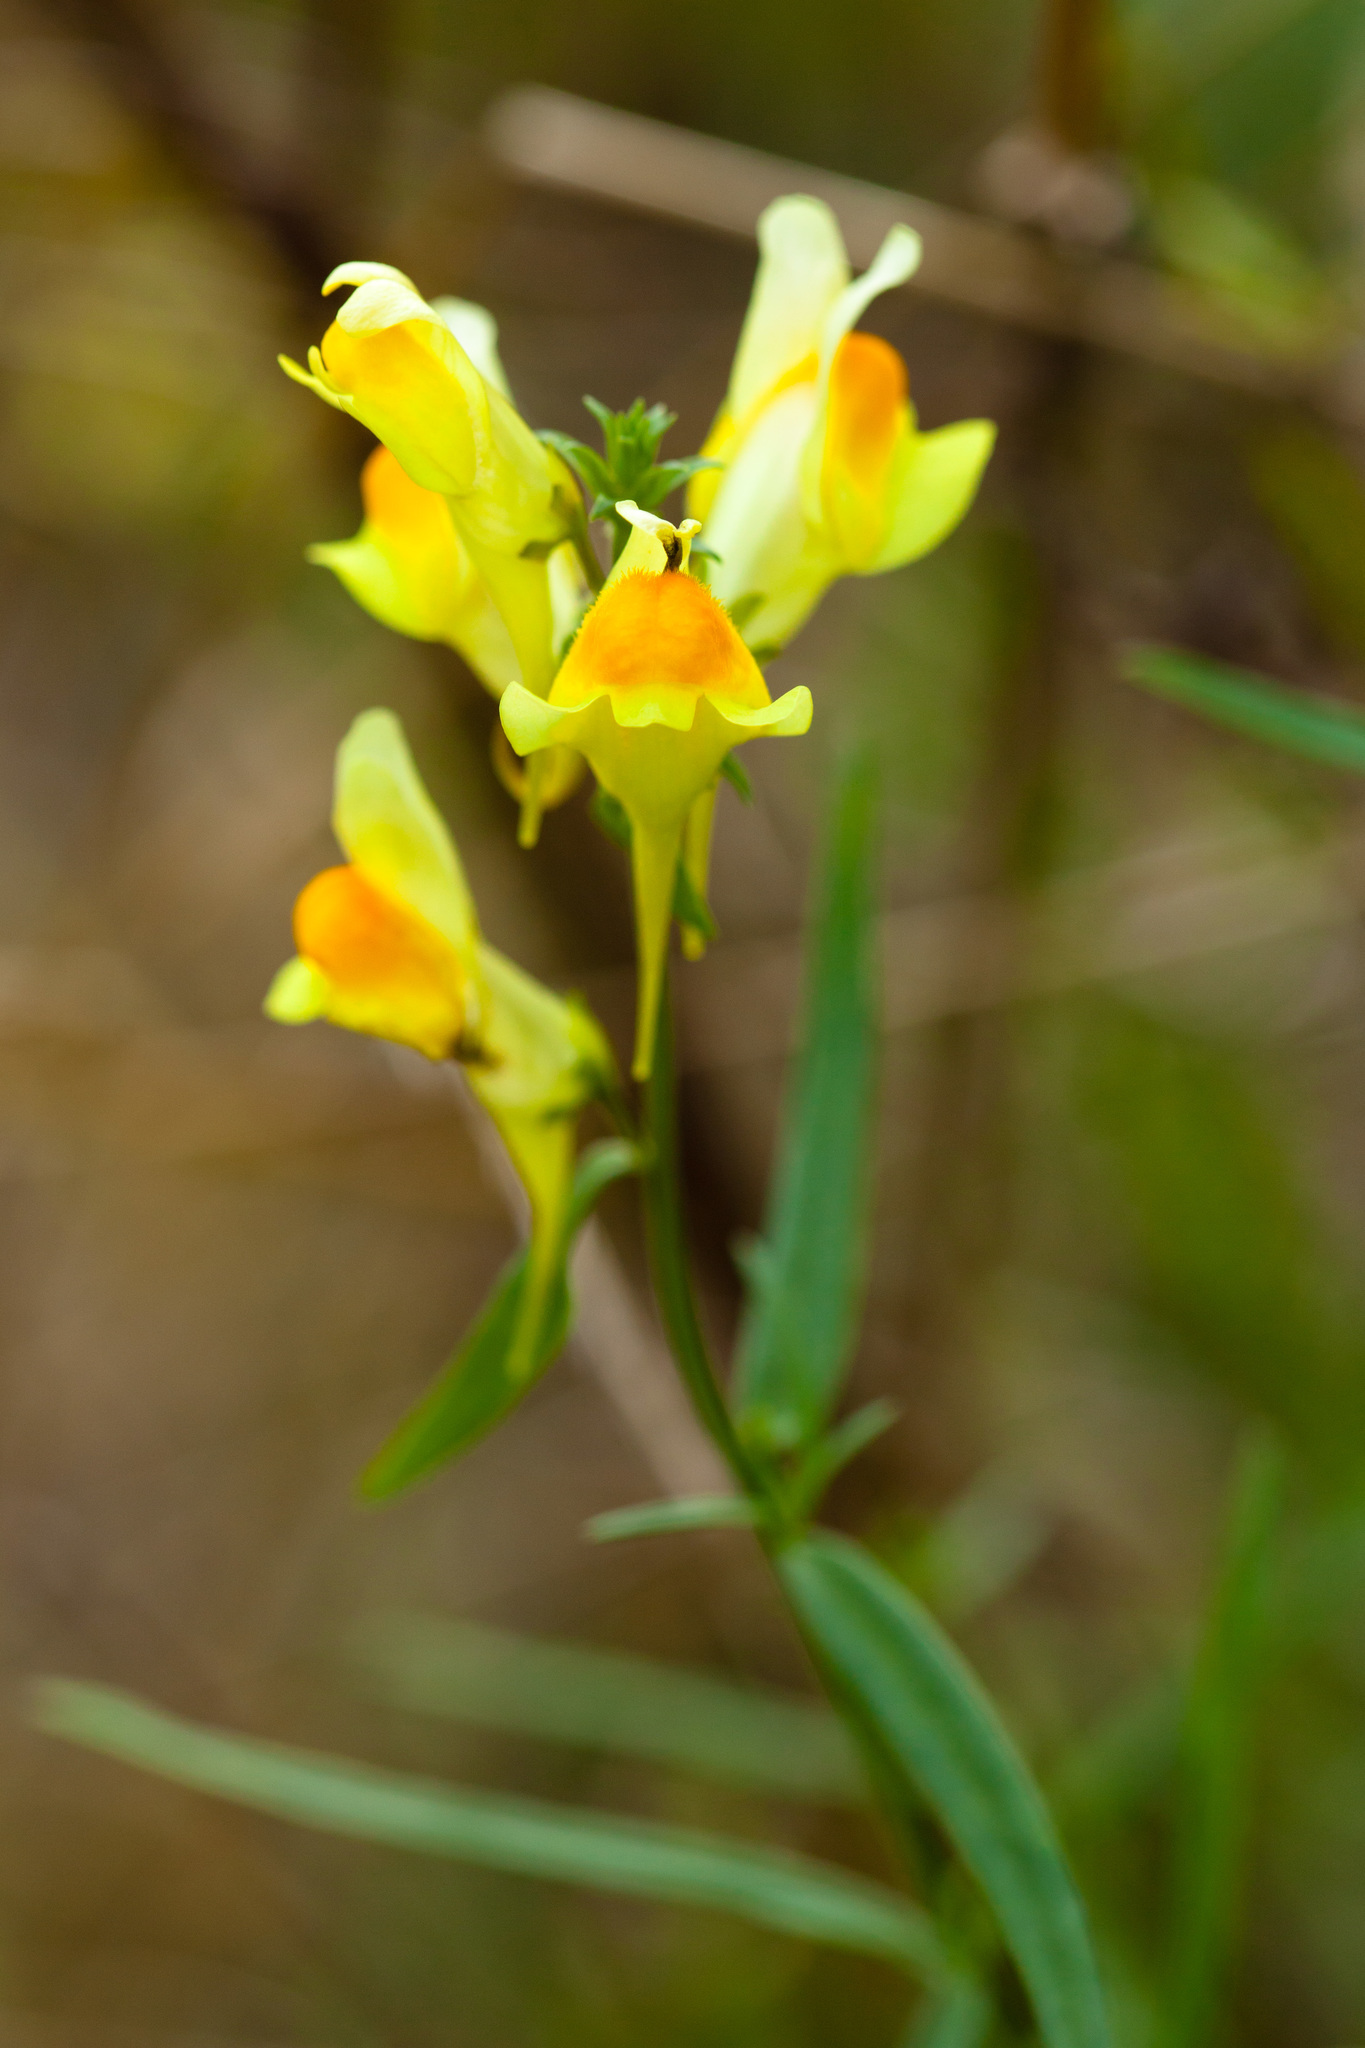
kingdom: Plantae
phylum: Tracheophyta
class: Magnoliopsida
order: Lamiales
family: Plantaginaceae
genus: Linaria
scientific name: Linaria vulgaris
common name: Butter and eggs
